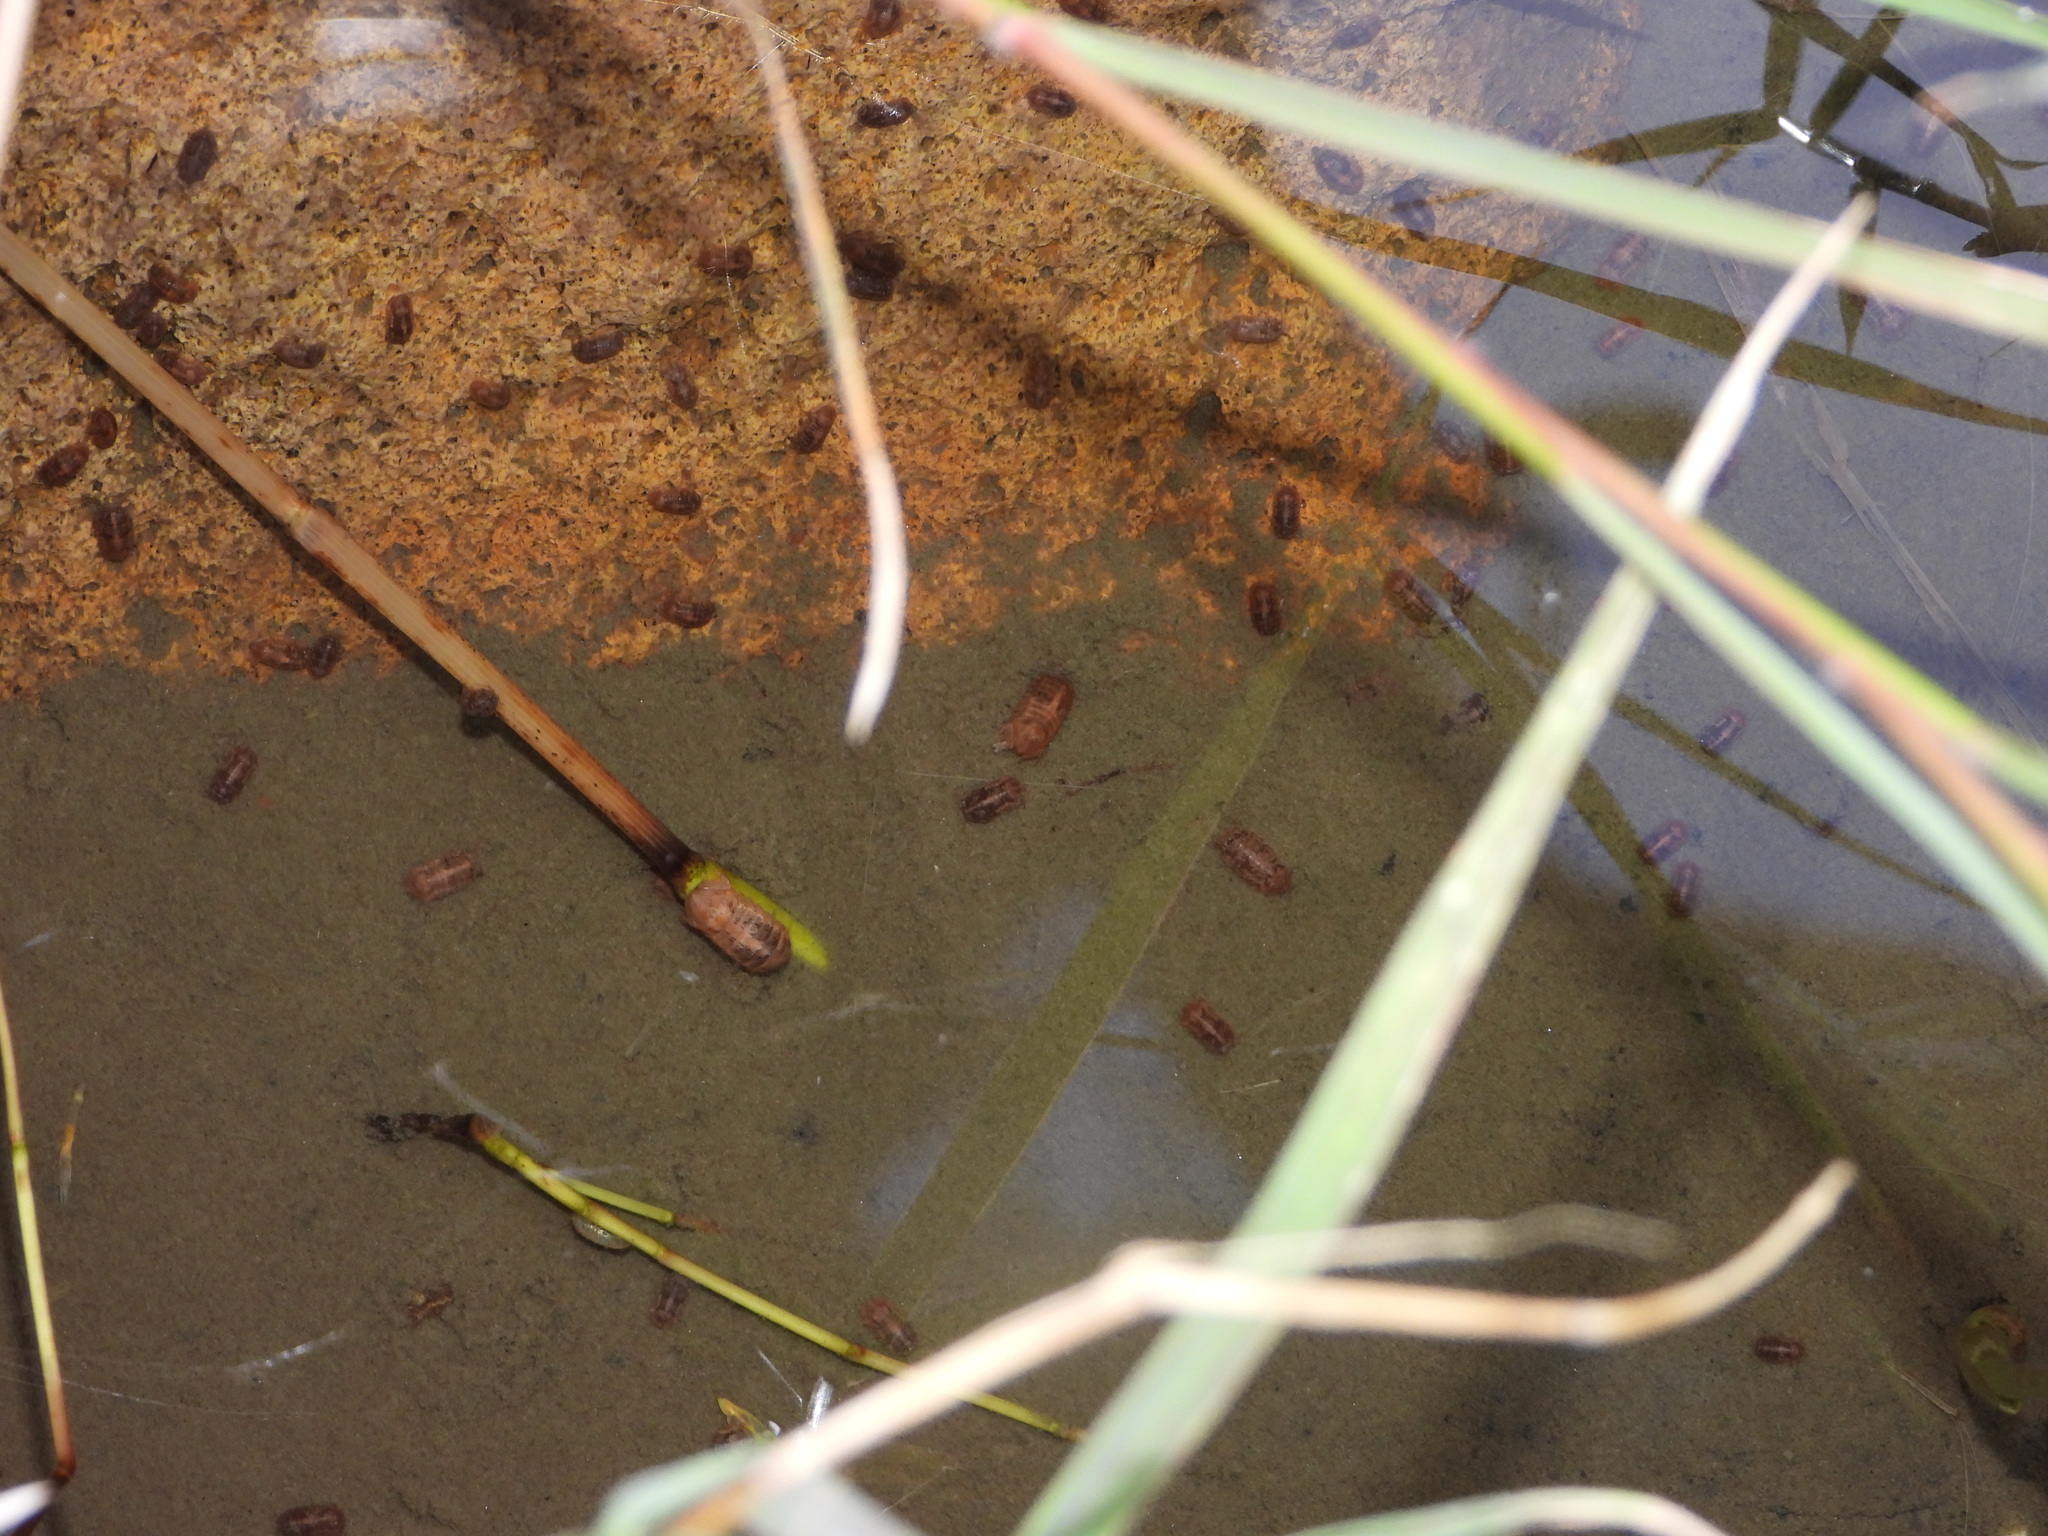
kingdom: Animalia
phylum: Arthropoda
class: Malacostraca
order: Isopoda
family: Sphaeromatidae
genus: Thermosphaeroma
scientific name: Thermosphaeroma thermophilum
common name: Socorro isopod
